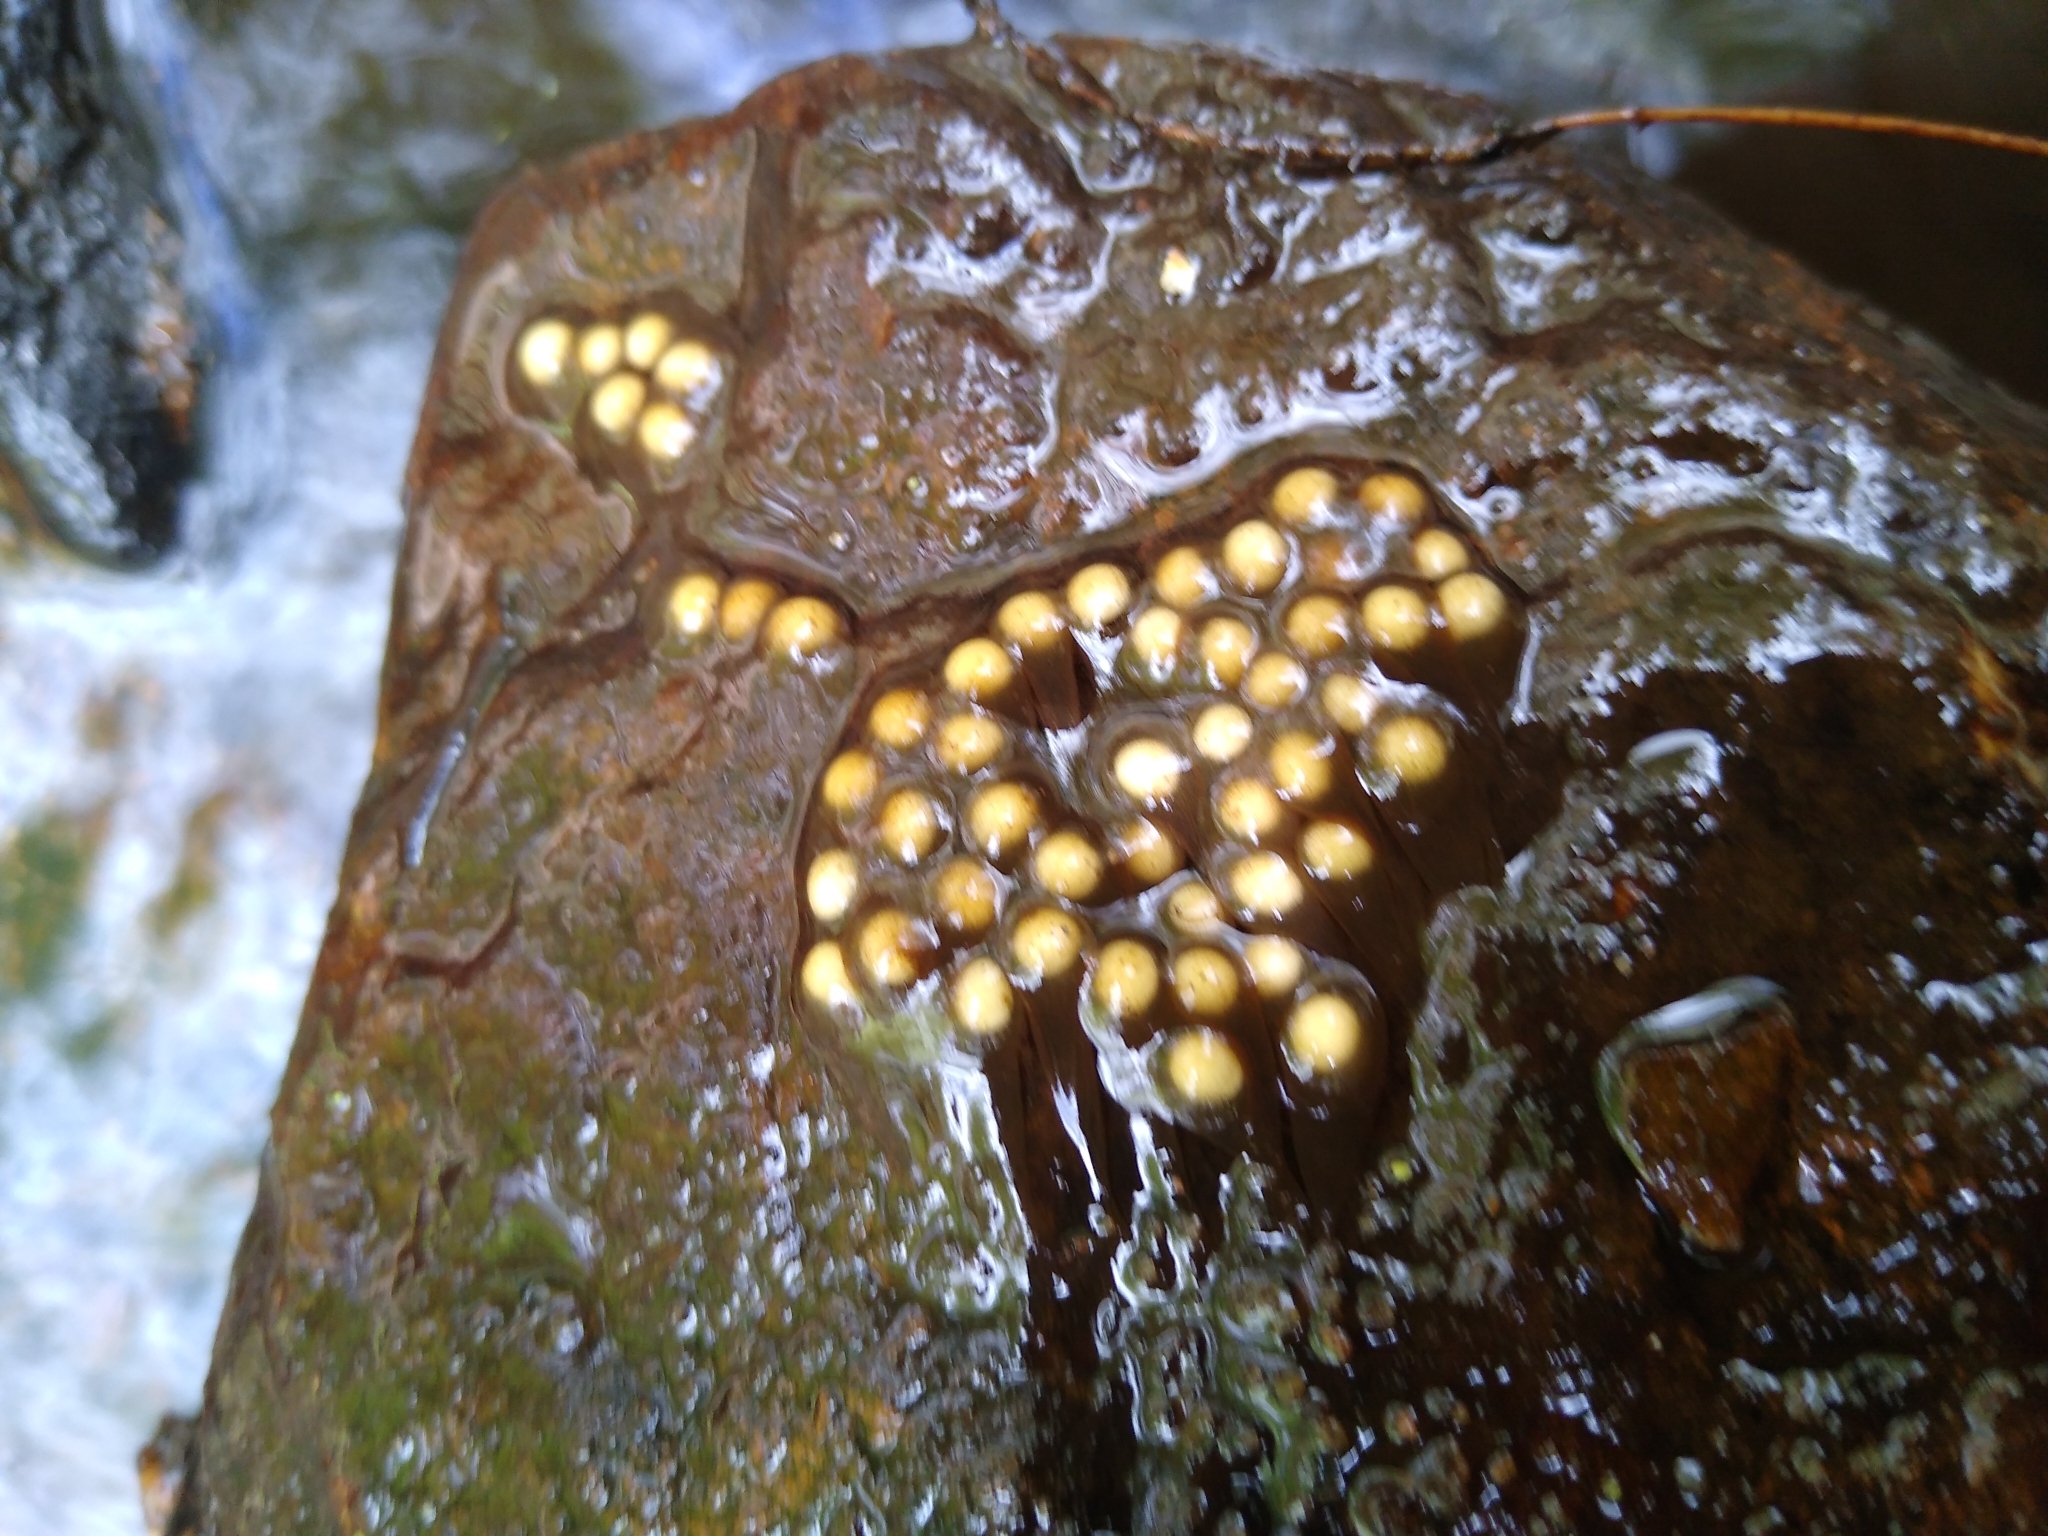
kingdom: Animalia
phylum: Chordata
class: Amphibia
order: Caudata
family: Plethodontidae
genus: Eurycea
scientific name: Eurycea bislineata
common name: Northern two-lined salamander
